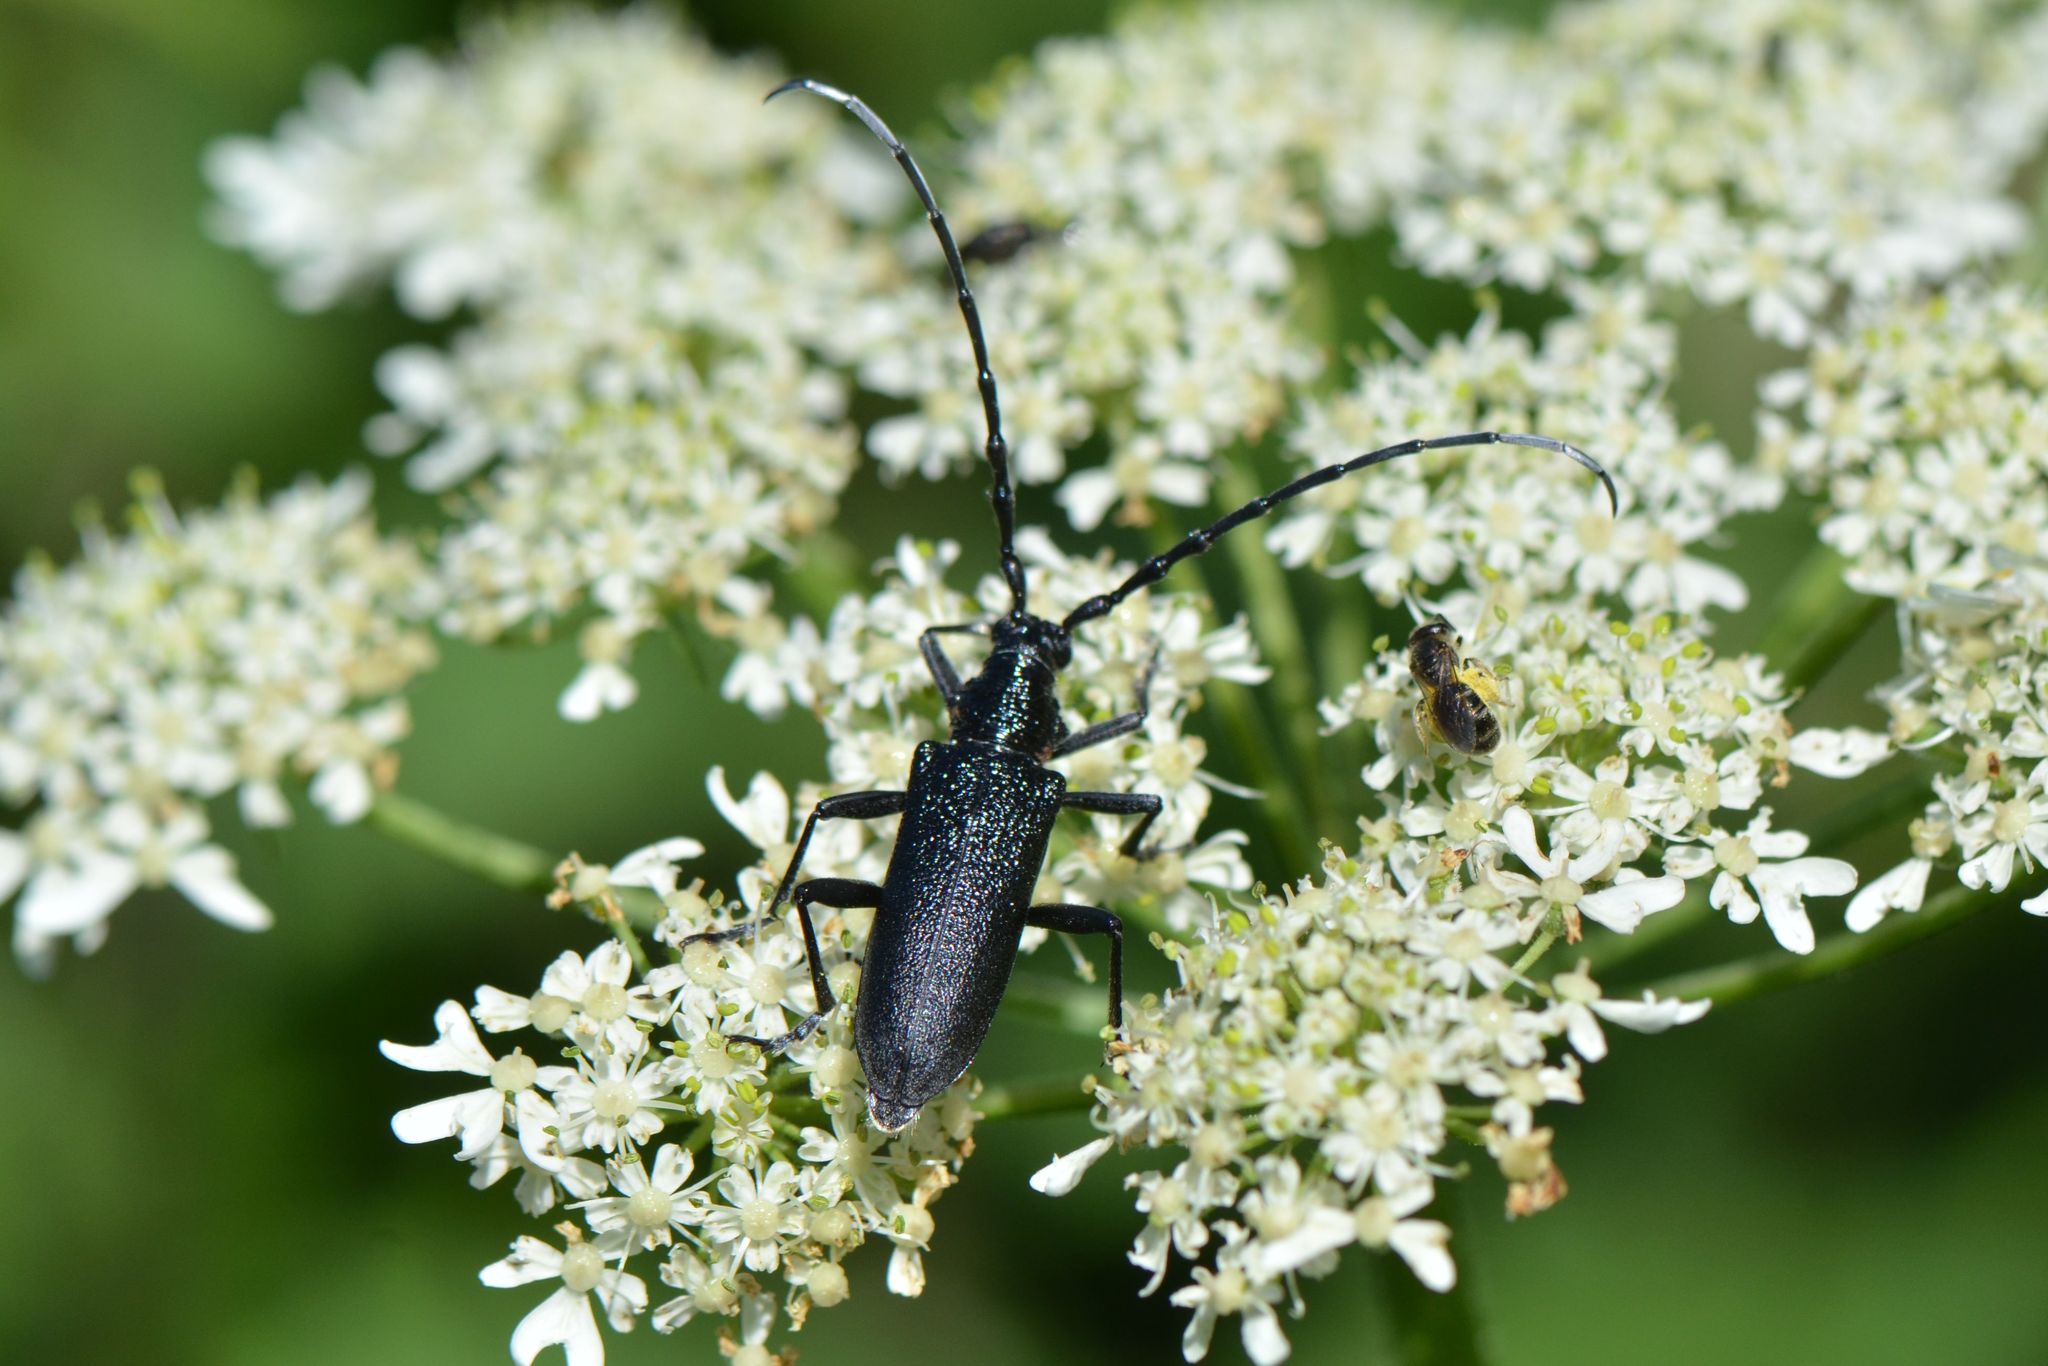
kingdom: Animalia
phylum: Arthropoda
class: Insecta
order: Coleoptera
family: Cerambycidae
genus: Cerambyx
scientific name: Cerambyx scopolii
